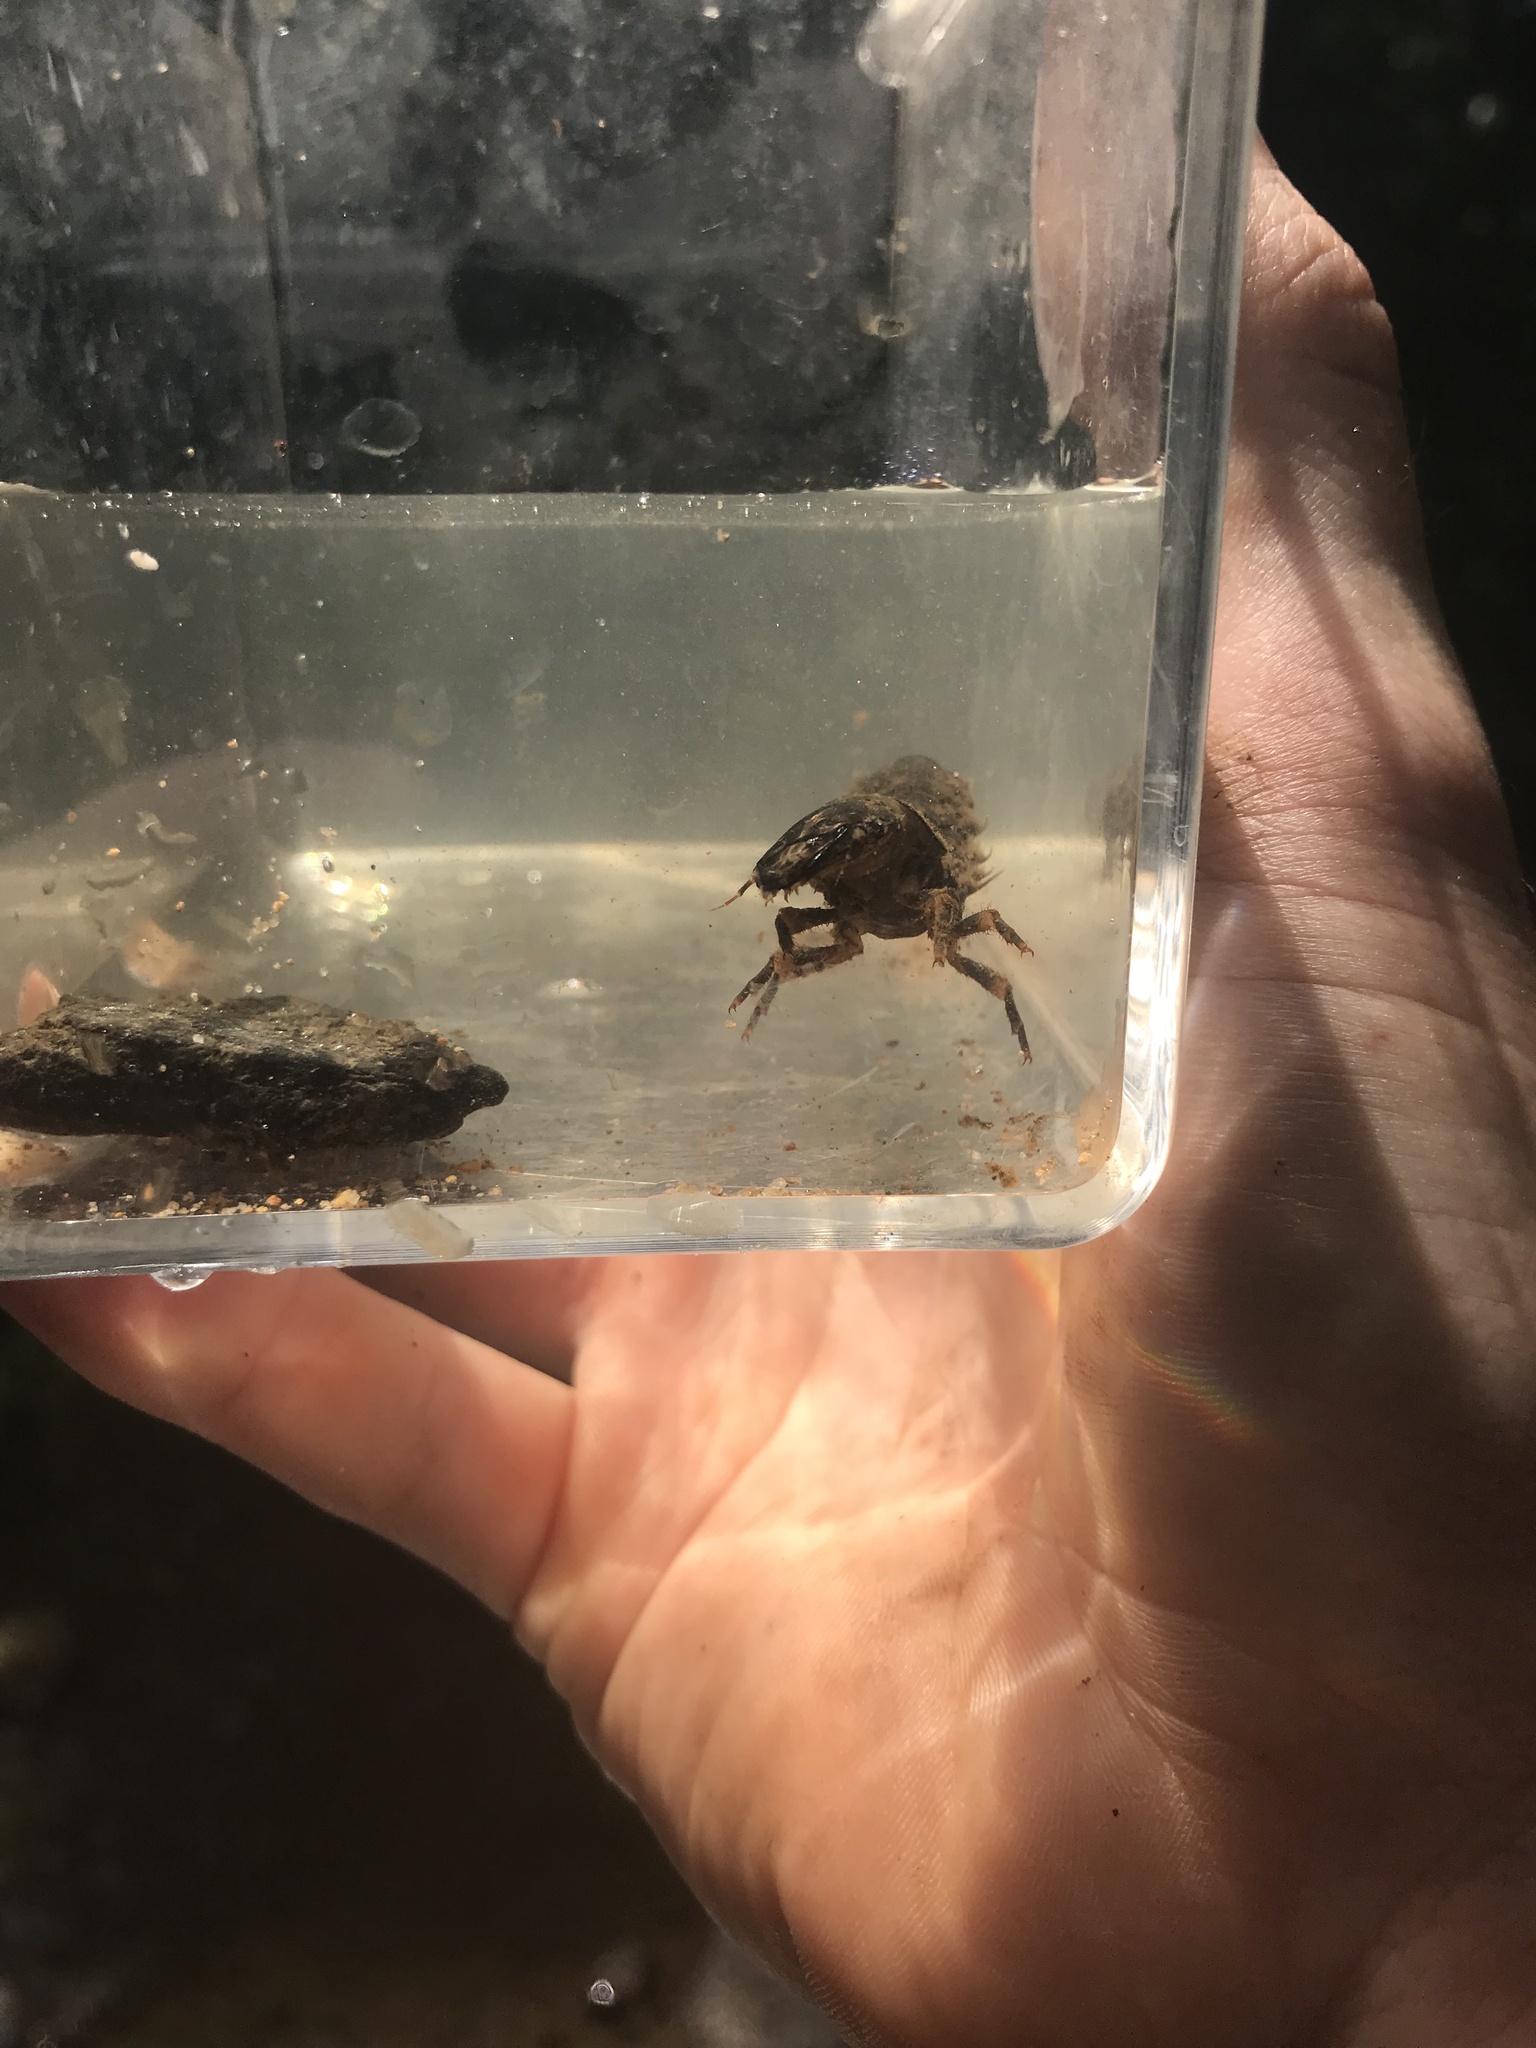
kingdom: Animalia
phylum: Arthropoda
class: Insecta
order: Megaloptera
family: Corydalidae
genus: Corydalus
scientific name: Corydalus cornutus
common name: Dobsonfly
